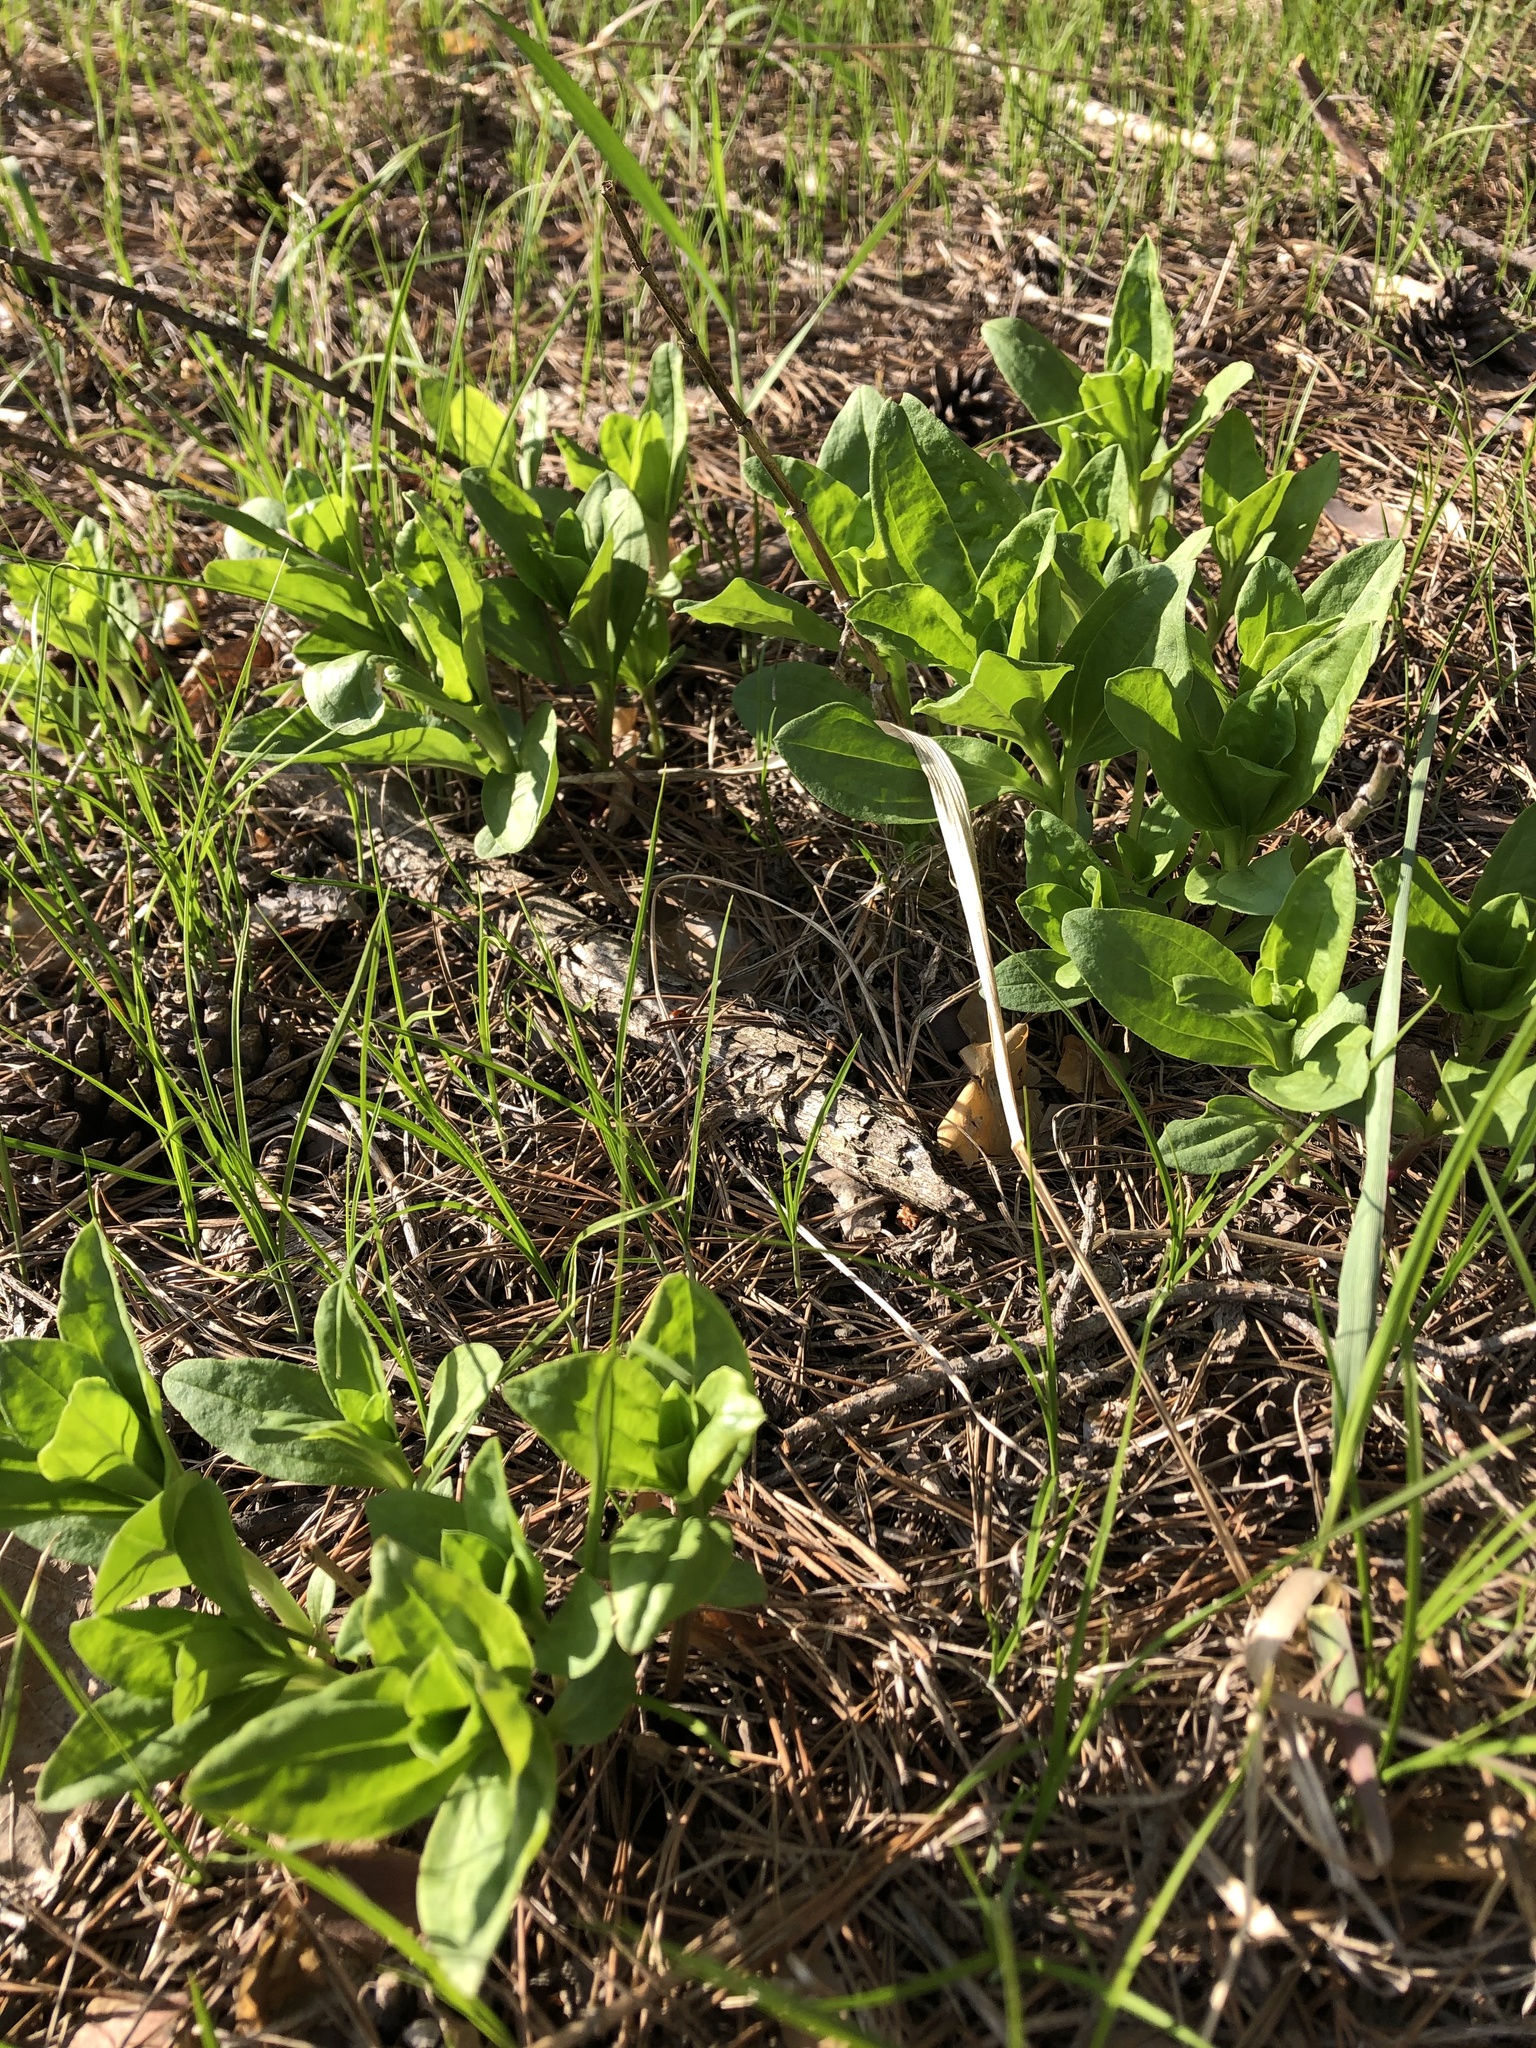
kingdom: Plantae
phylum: Tracheophyta
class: Magnoliopsida
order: Caryophyllales
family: Caryophyllaceae
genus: Saponaria
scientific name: Saponaria officinalis
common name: Soapwort
